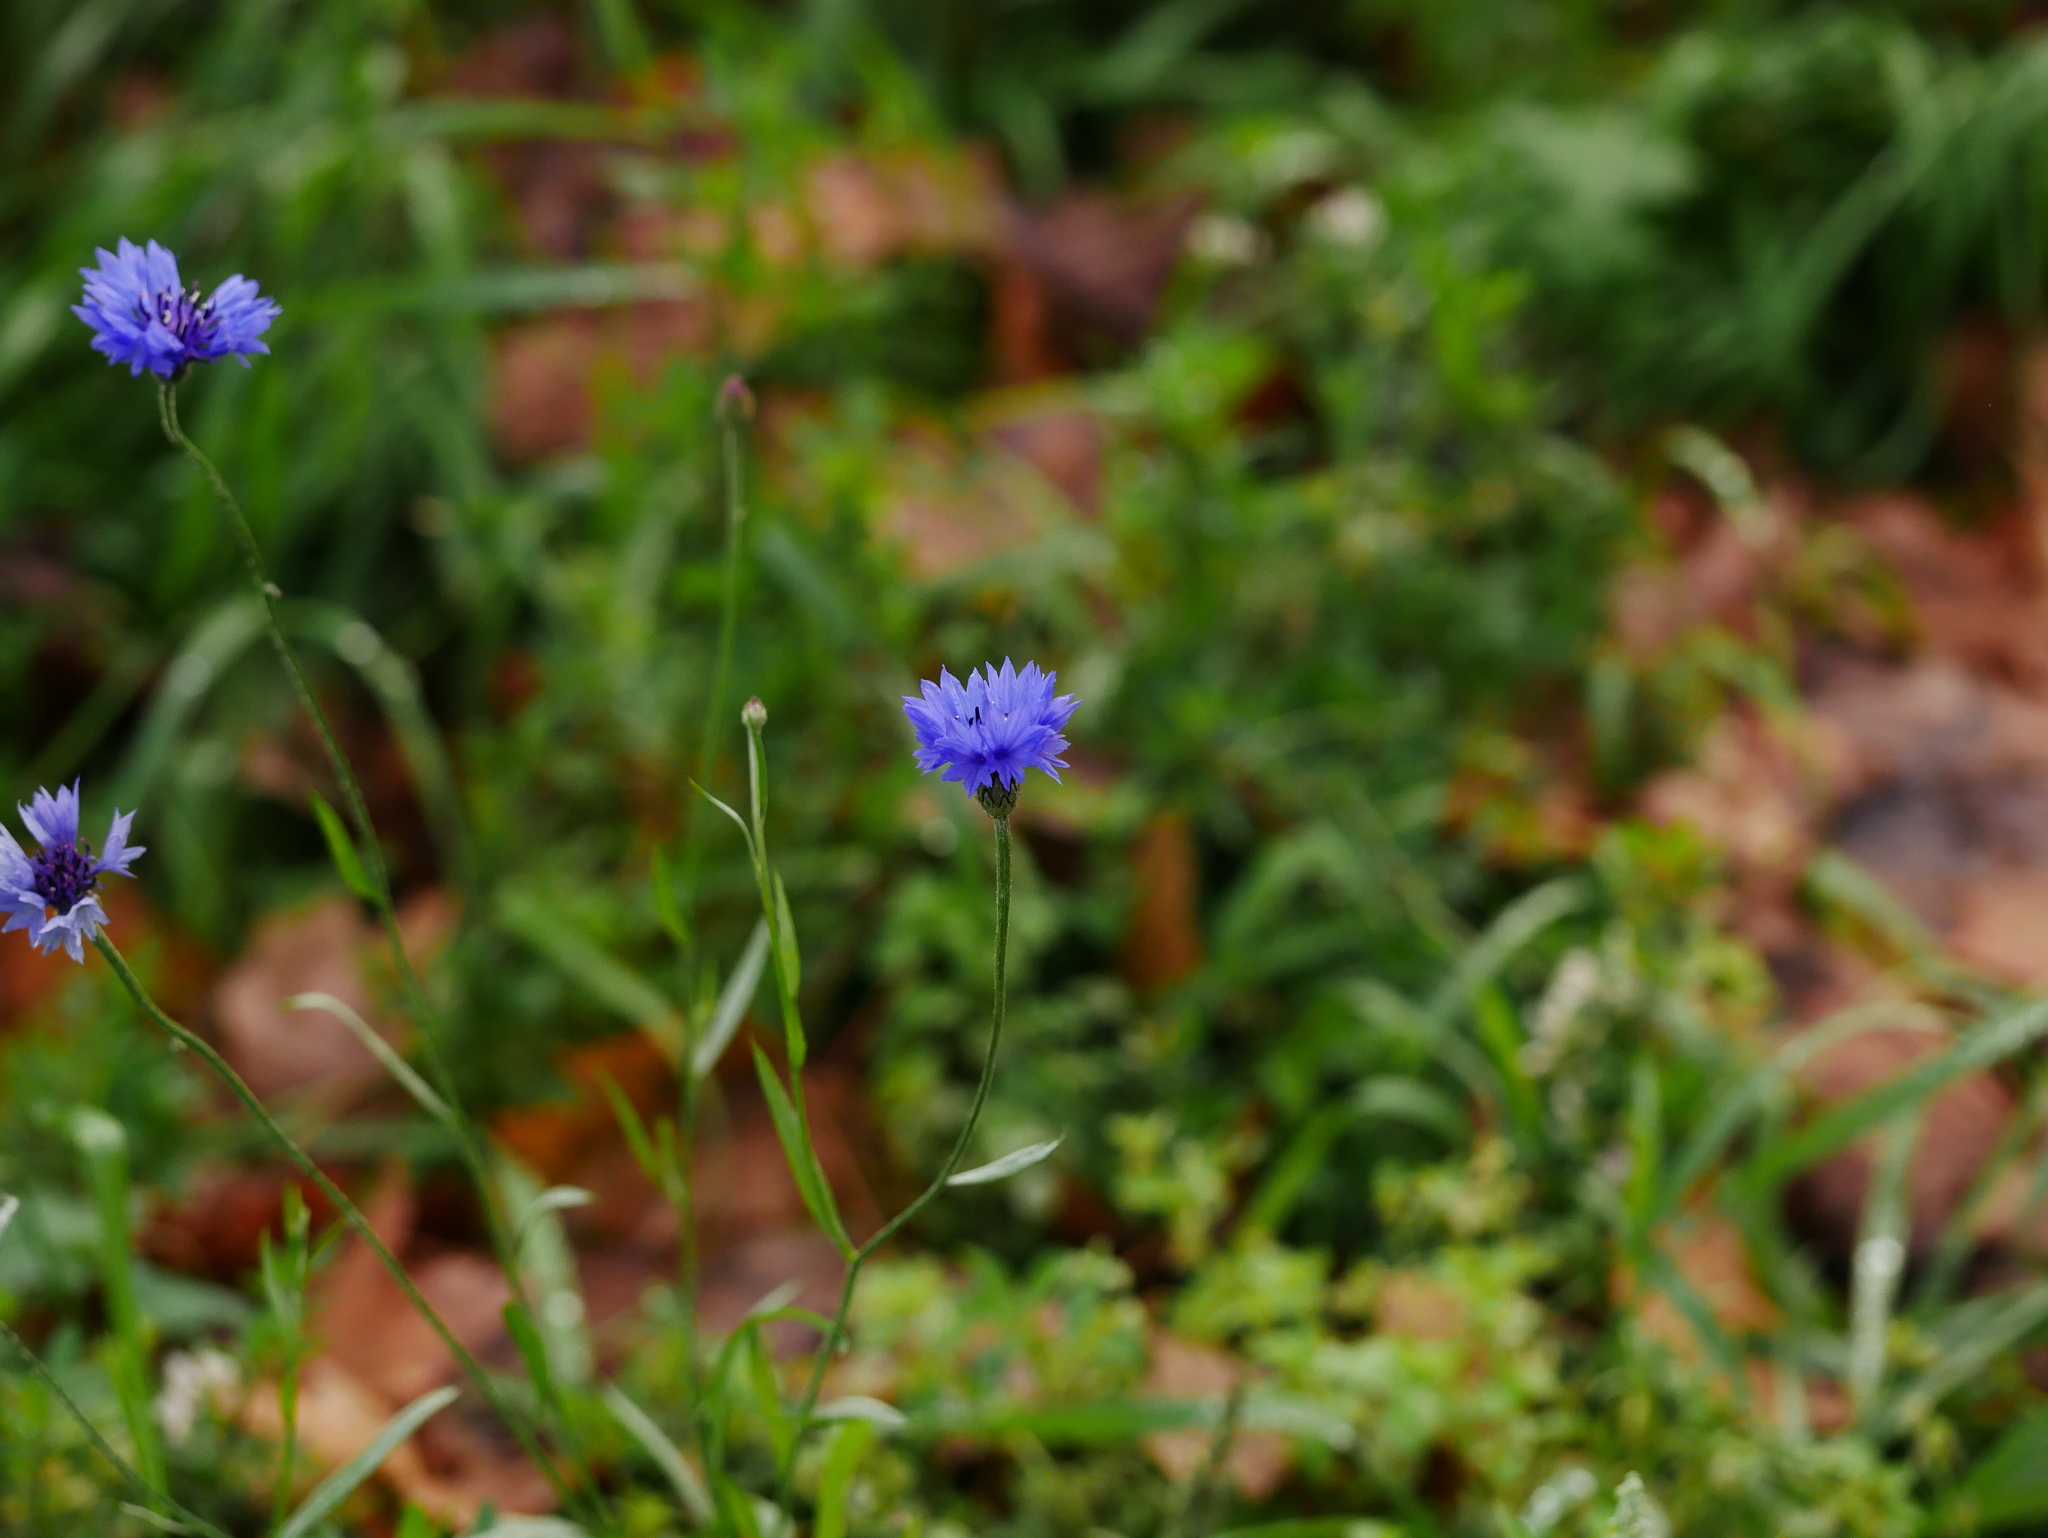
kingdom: Plantae
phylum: Tracheophyta
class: Magnoliopsida
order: Asterales
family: Asteraceae
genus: Centaurea
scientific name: Centaurea cyanus
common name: Cornflower
